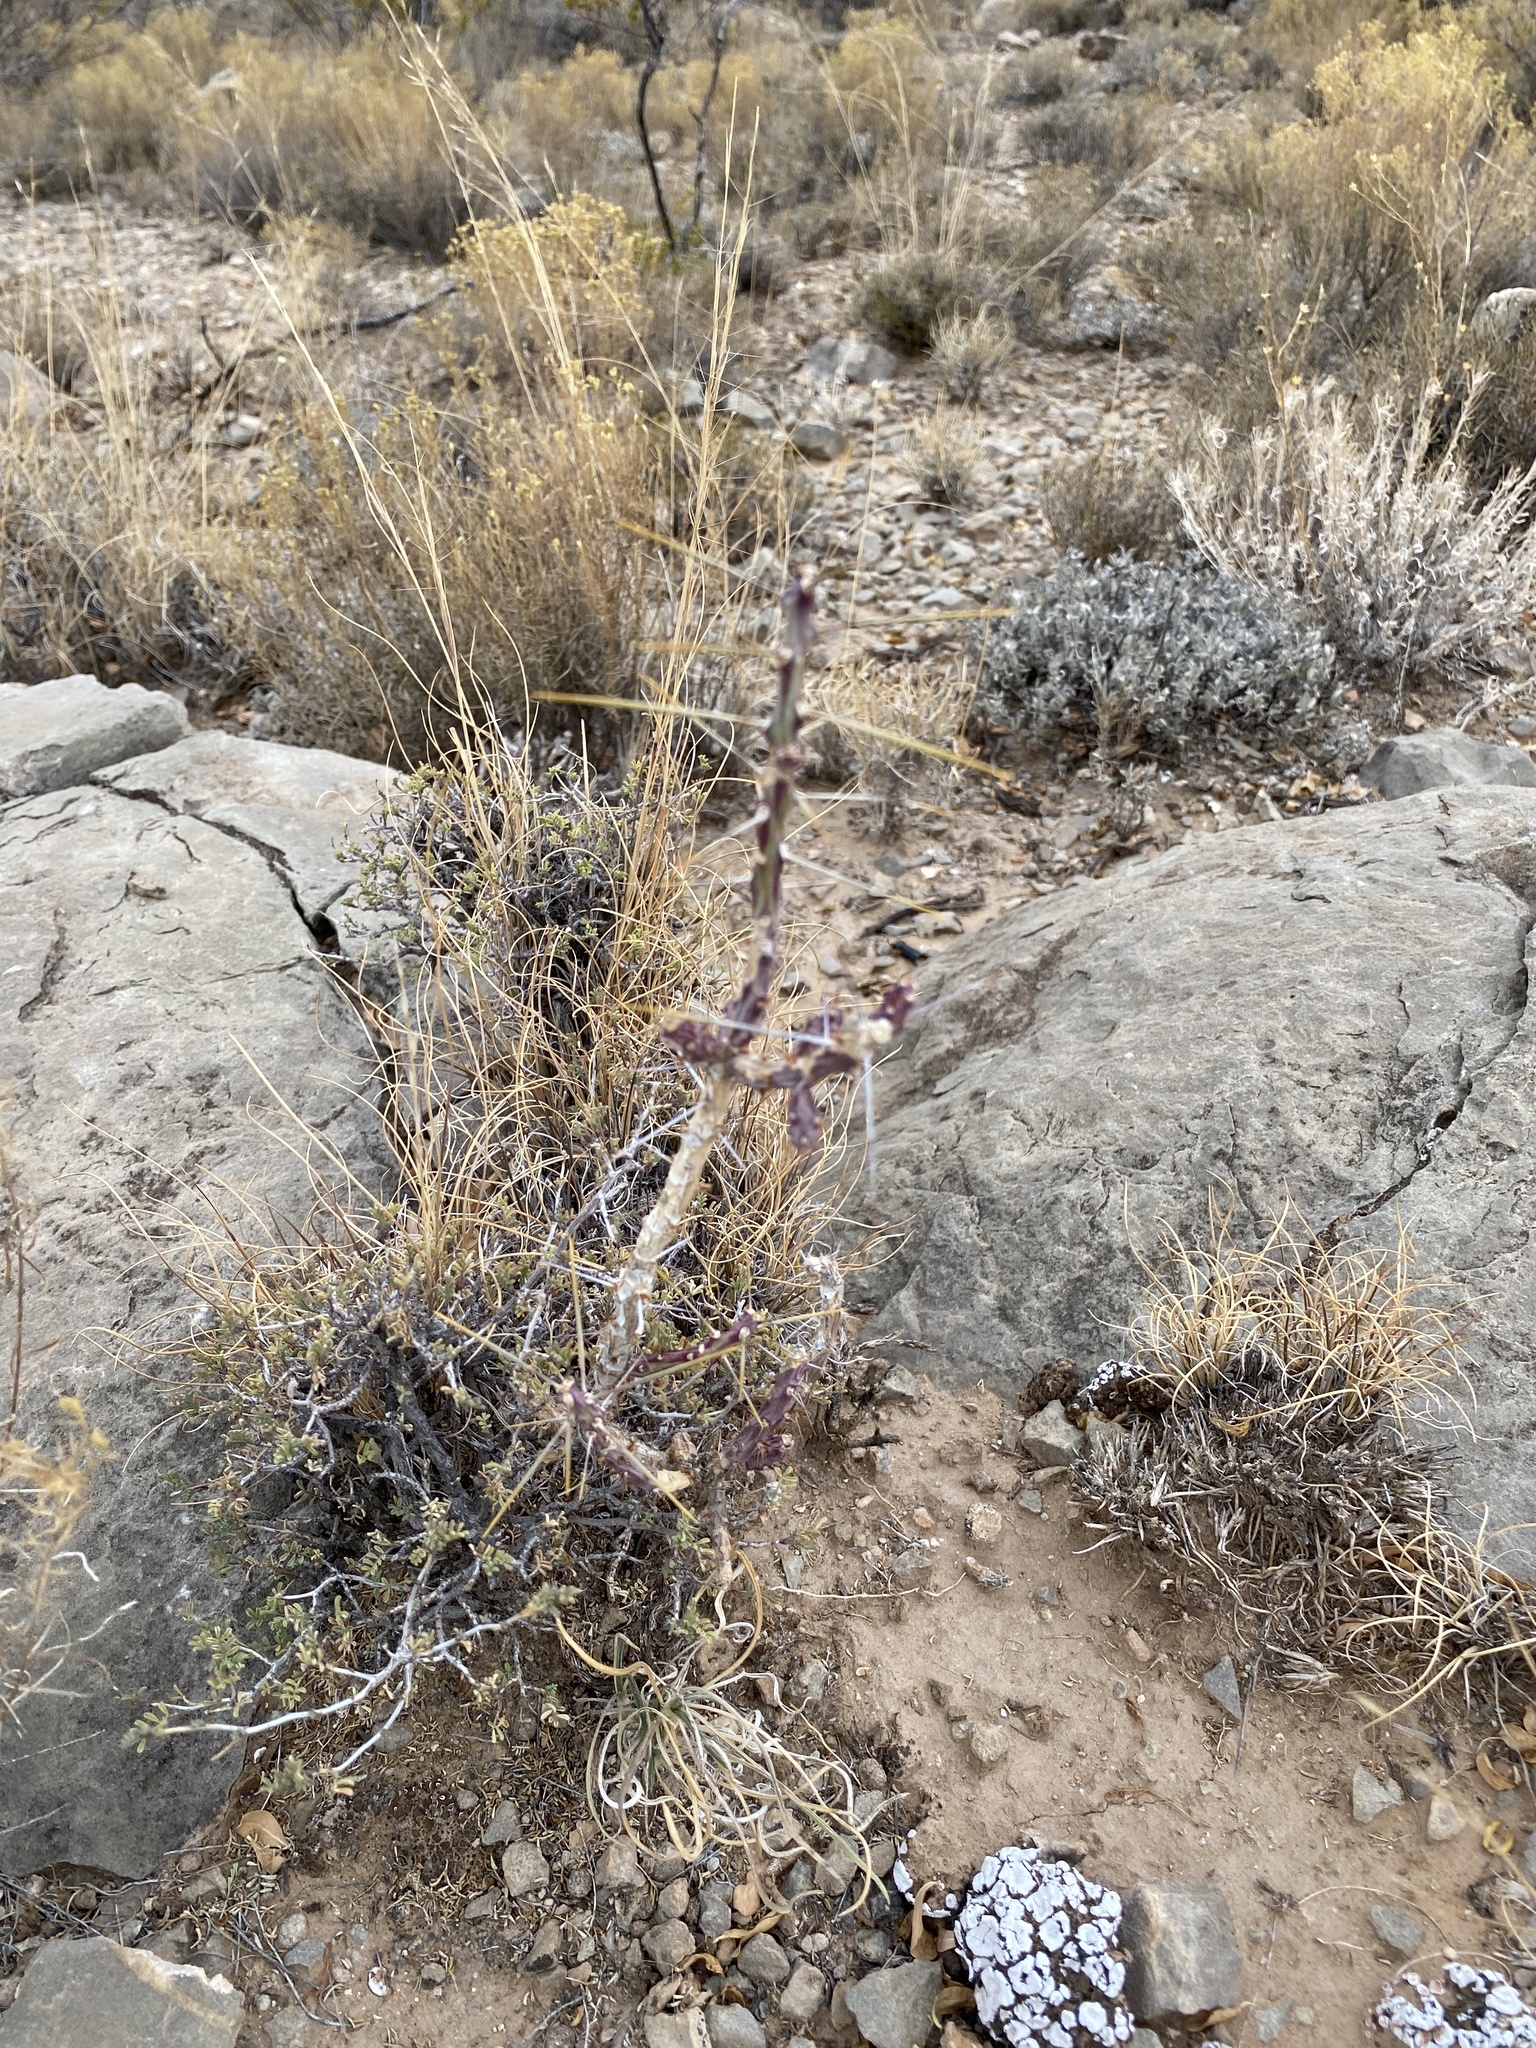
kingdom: Plantae
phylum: Tracheophyta
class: Magnoliopsida
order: Caryophyllales
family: Cactaceae
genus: Cylindropuntia
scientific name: Cylindropuntia leptocaulis
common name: Christmas cactus
